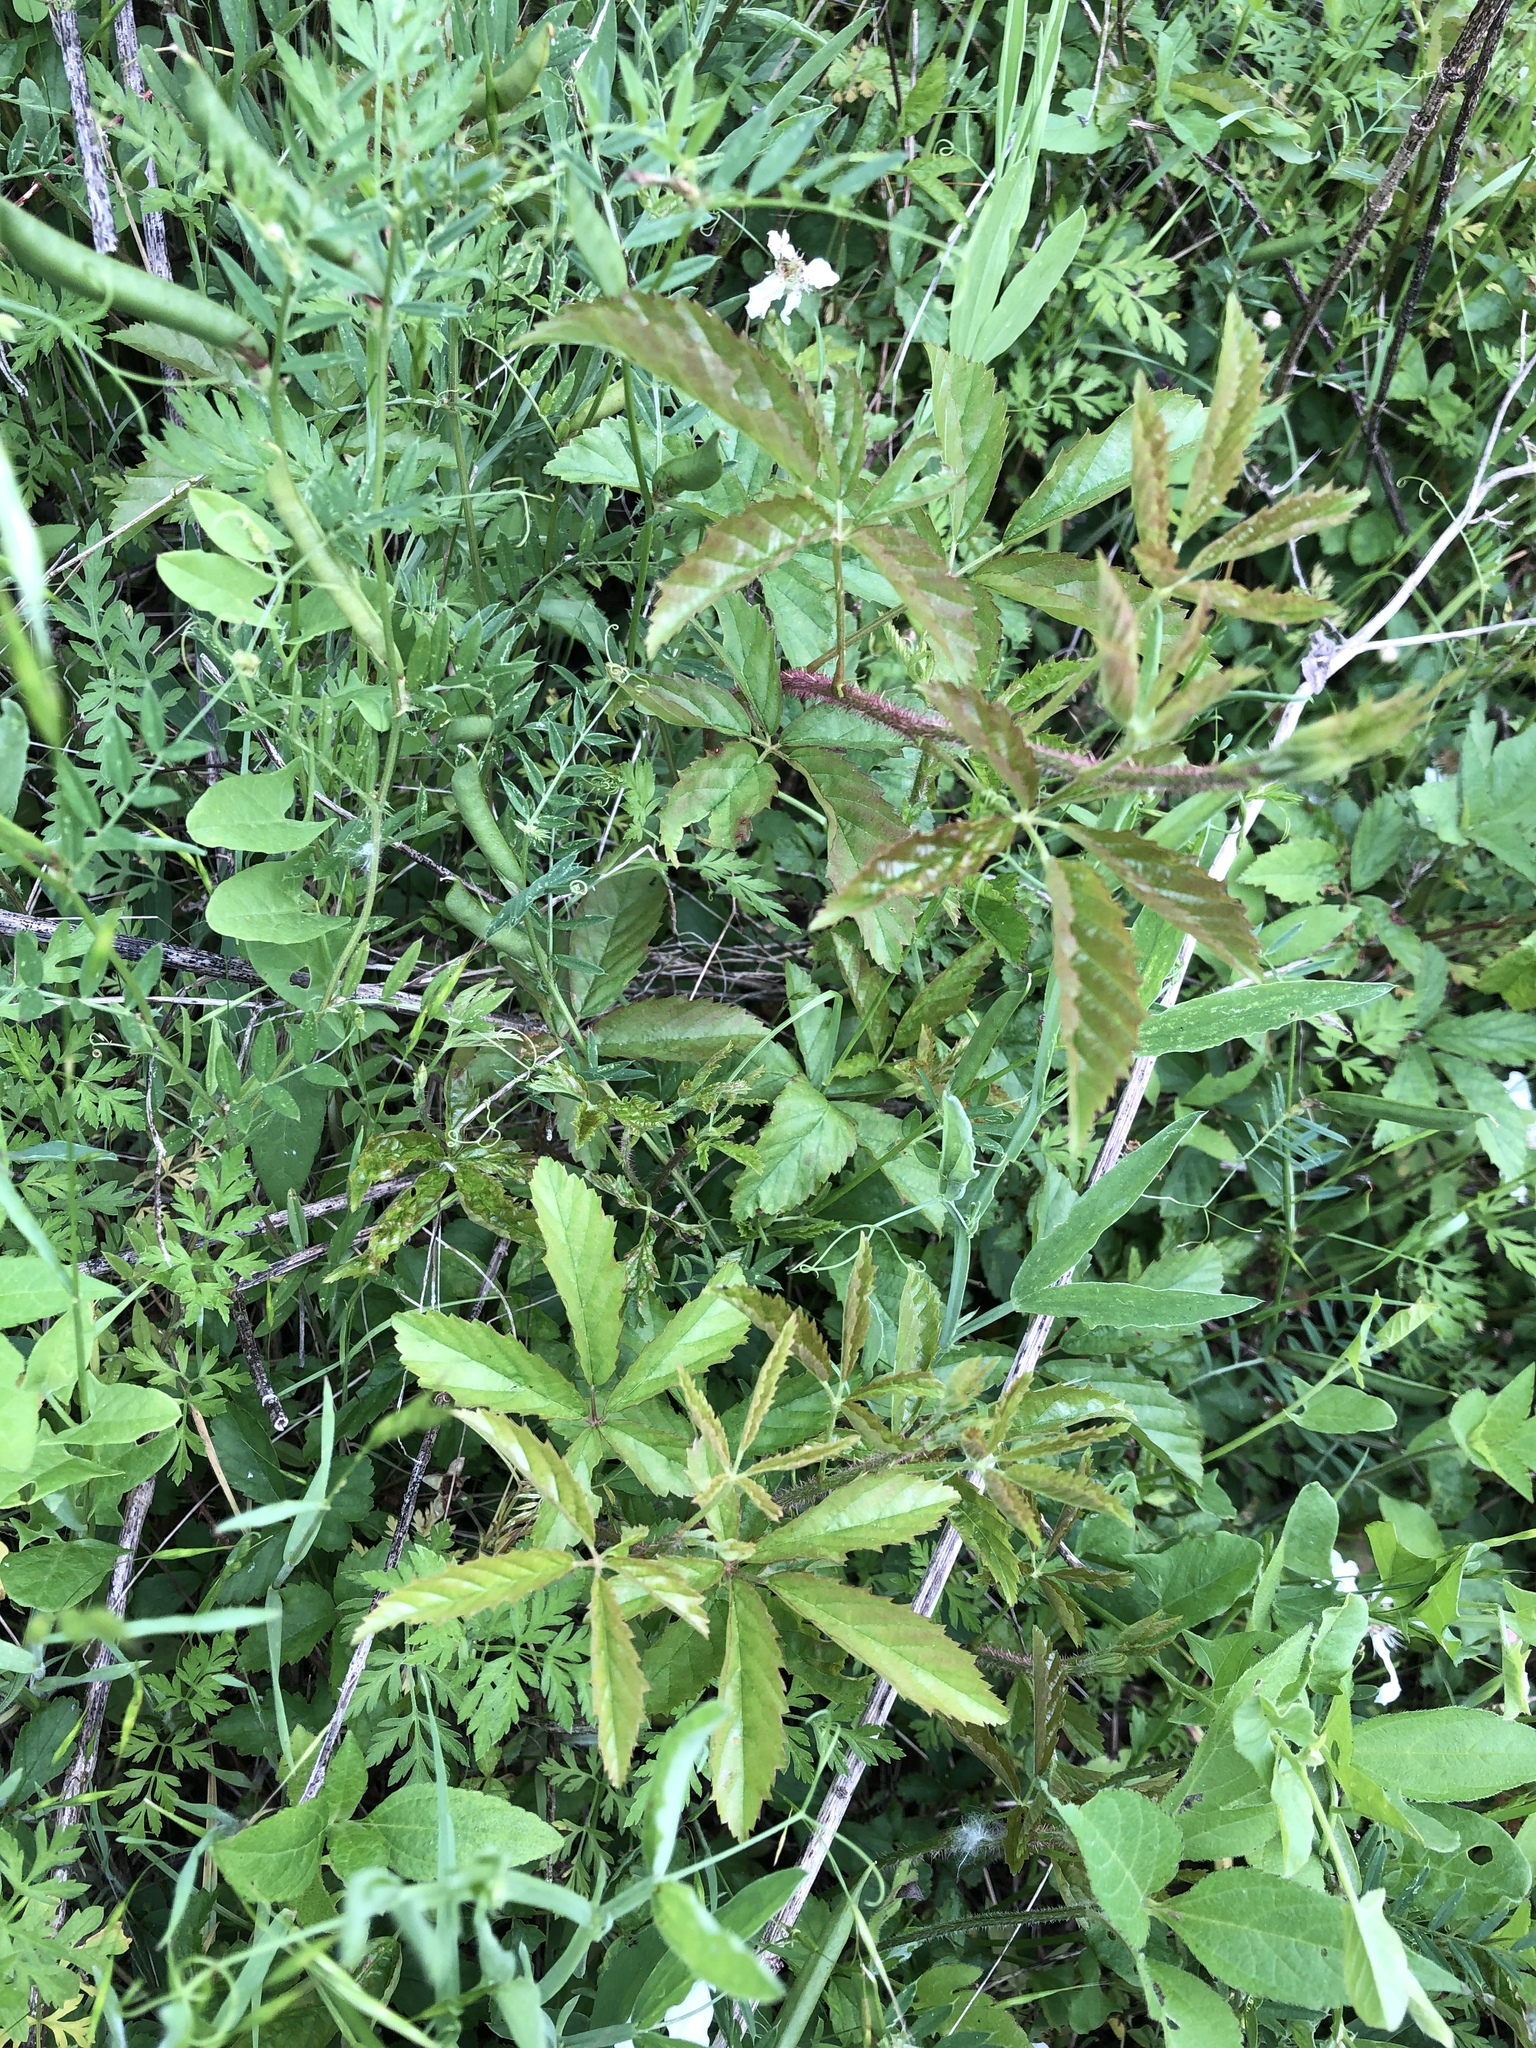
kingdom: Plantae
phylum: Tracheophyta
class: Magnoliopsida
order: Rosales
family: Rosaceae
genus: Rubus
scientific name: Rubus trivialis
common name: Southern dewberry
